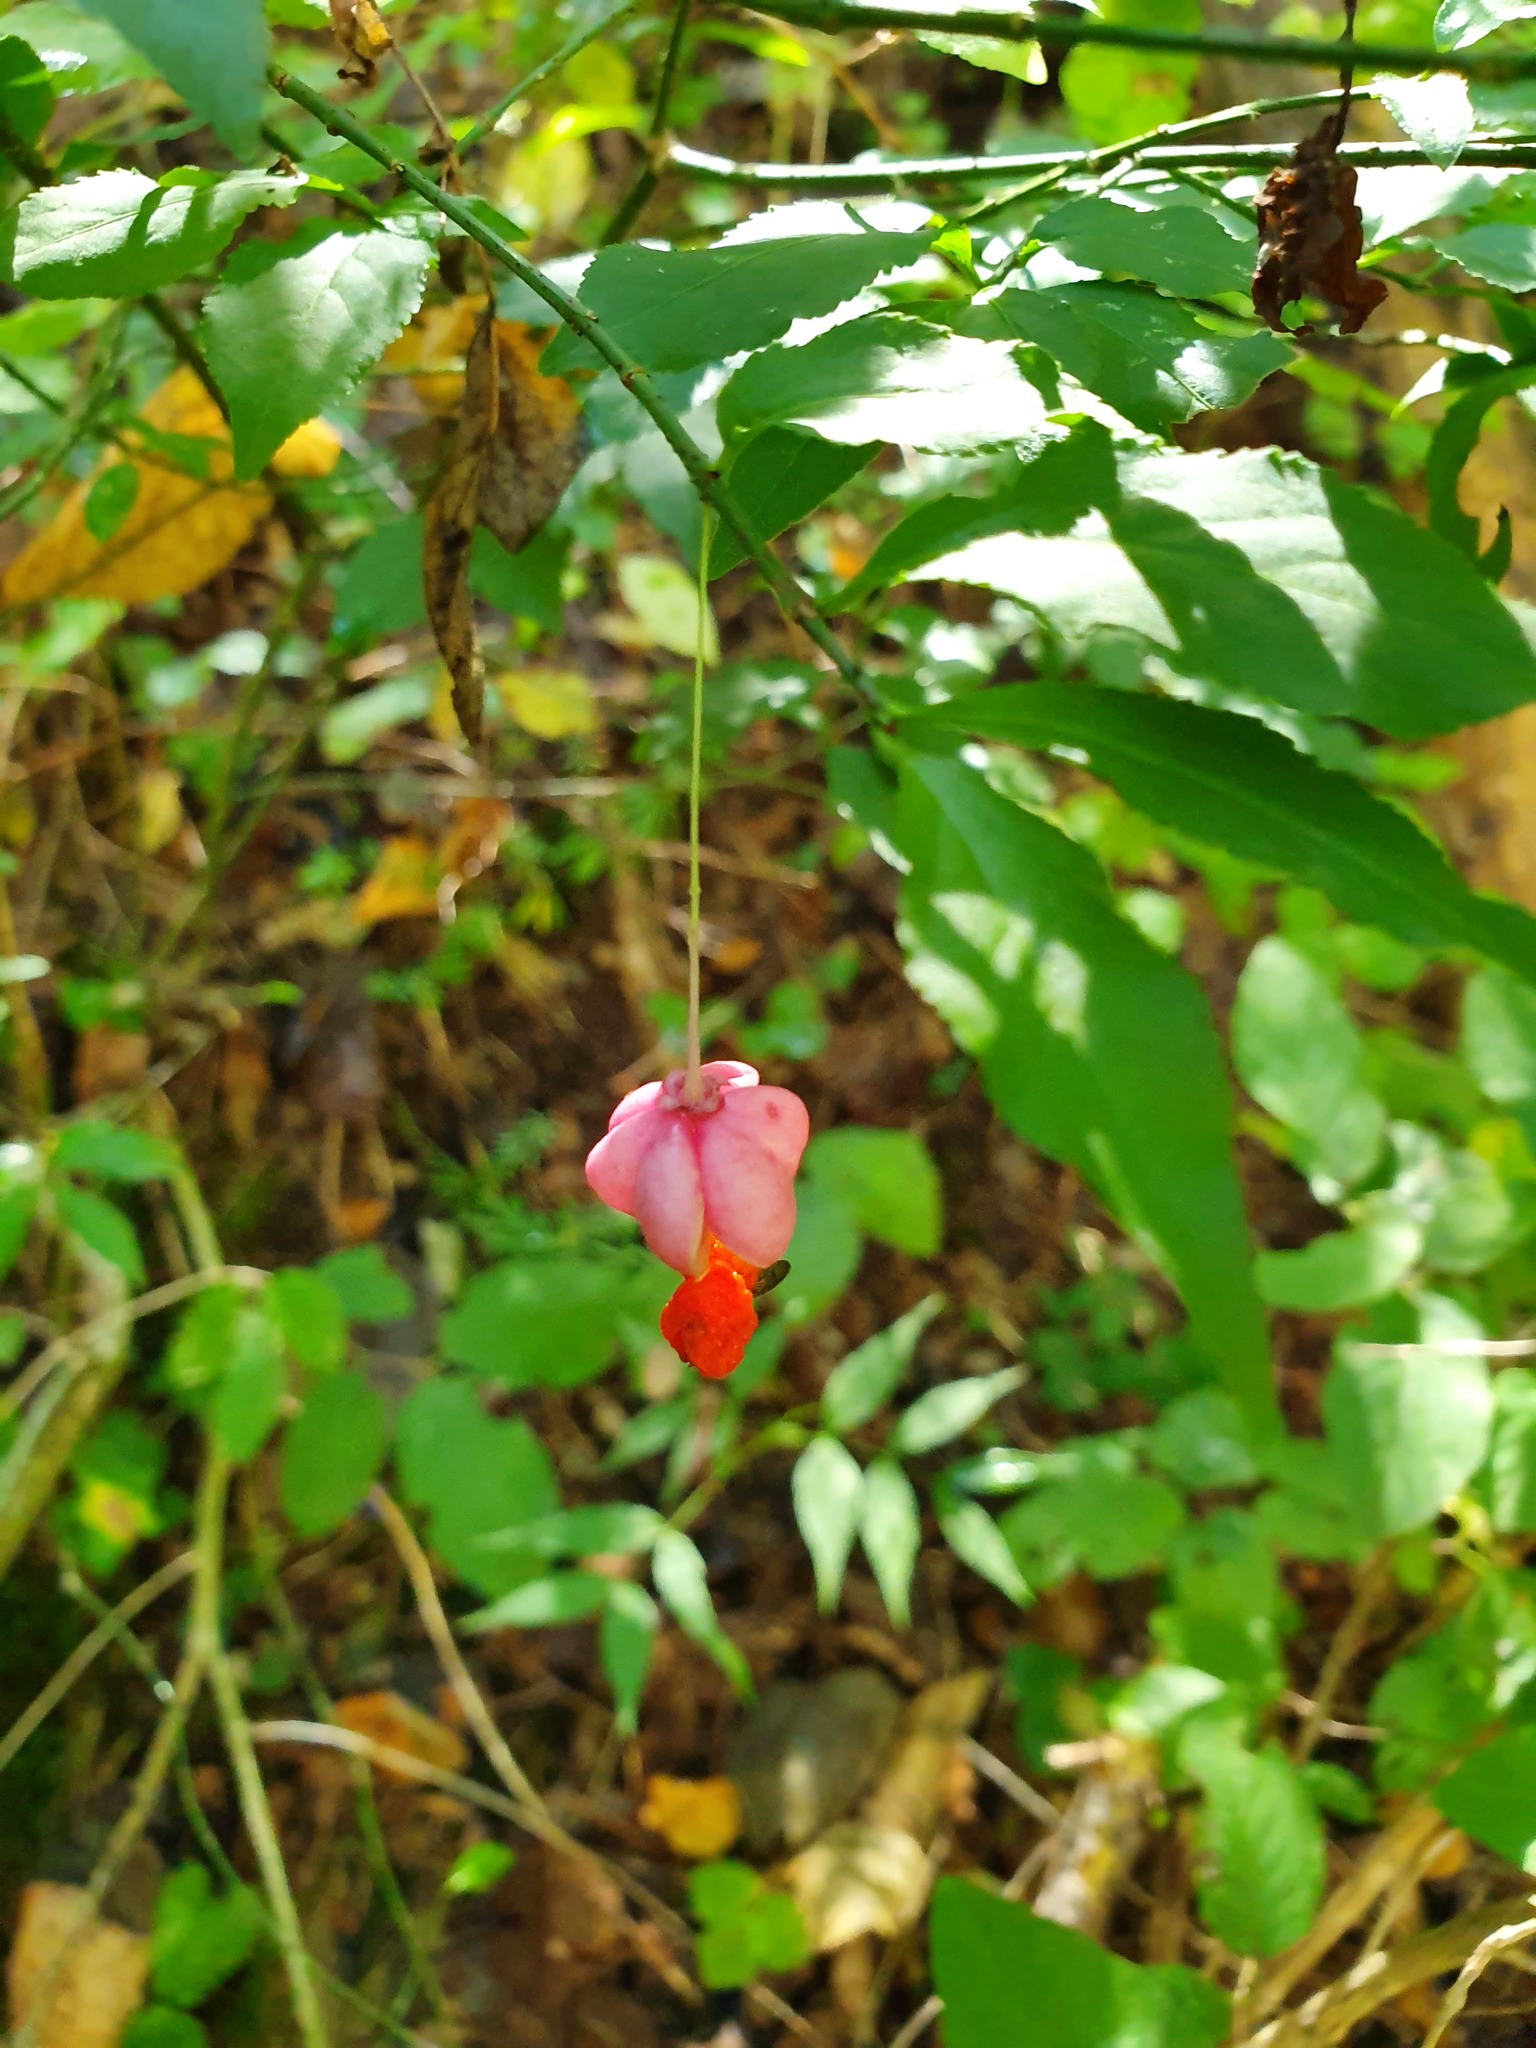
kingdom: Plantae
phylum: Tracheophyta
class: Magnoliopsida
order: Celastrales
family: Celastraceae
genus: Euonymus
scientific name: Euonymus verrucosus
